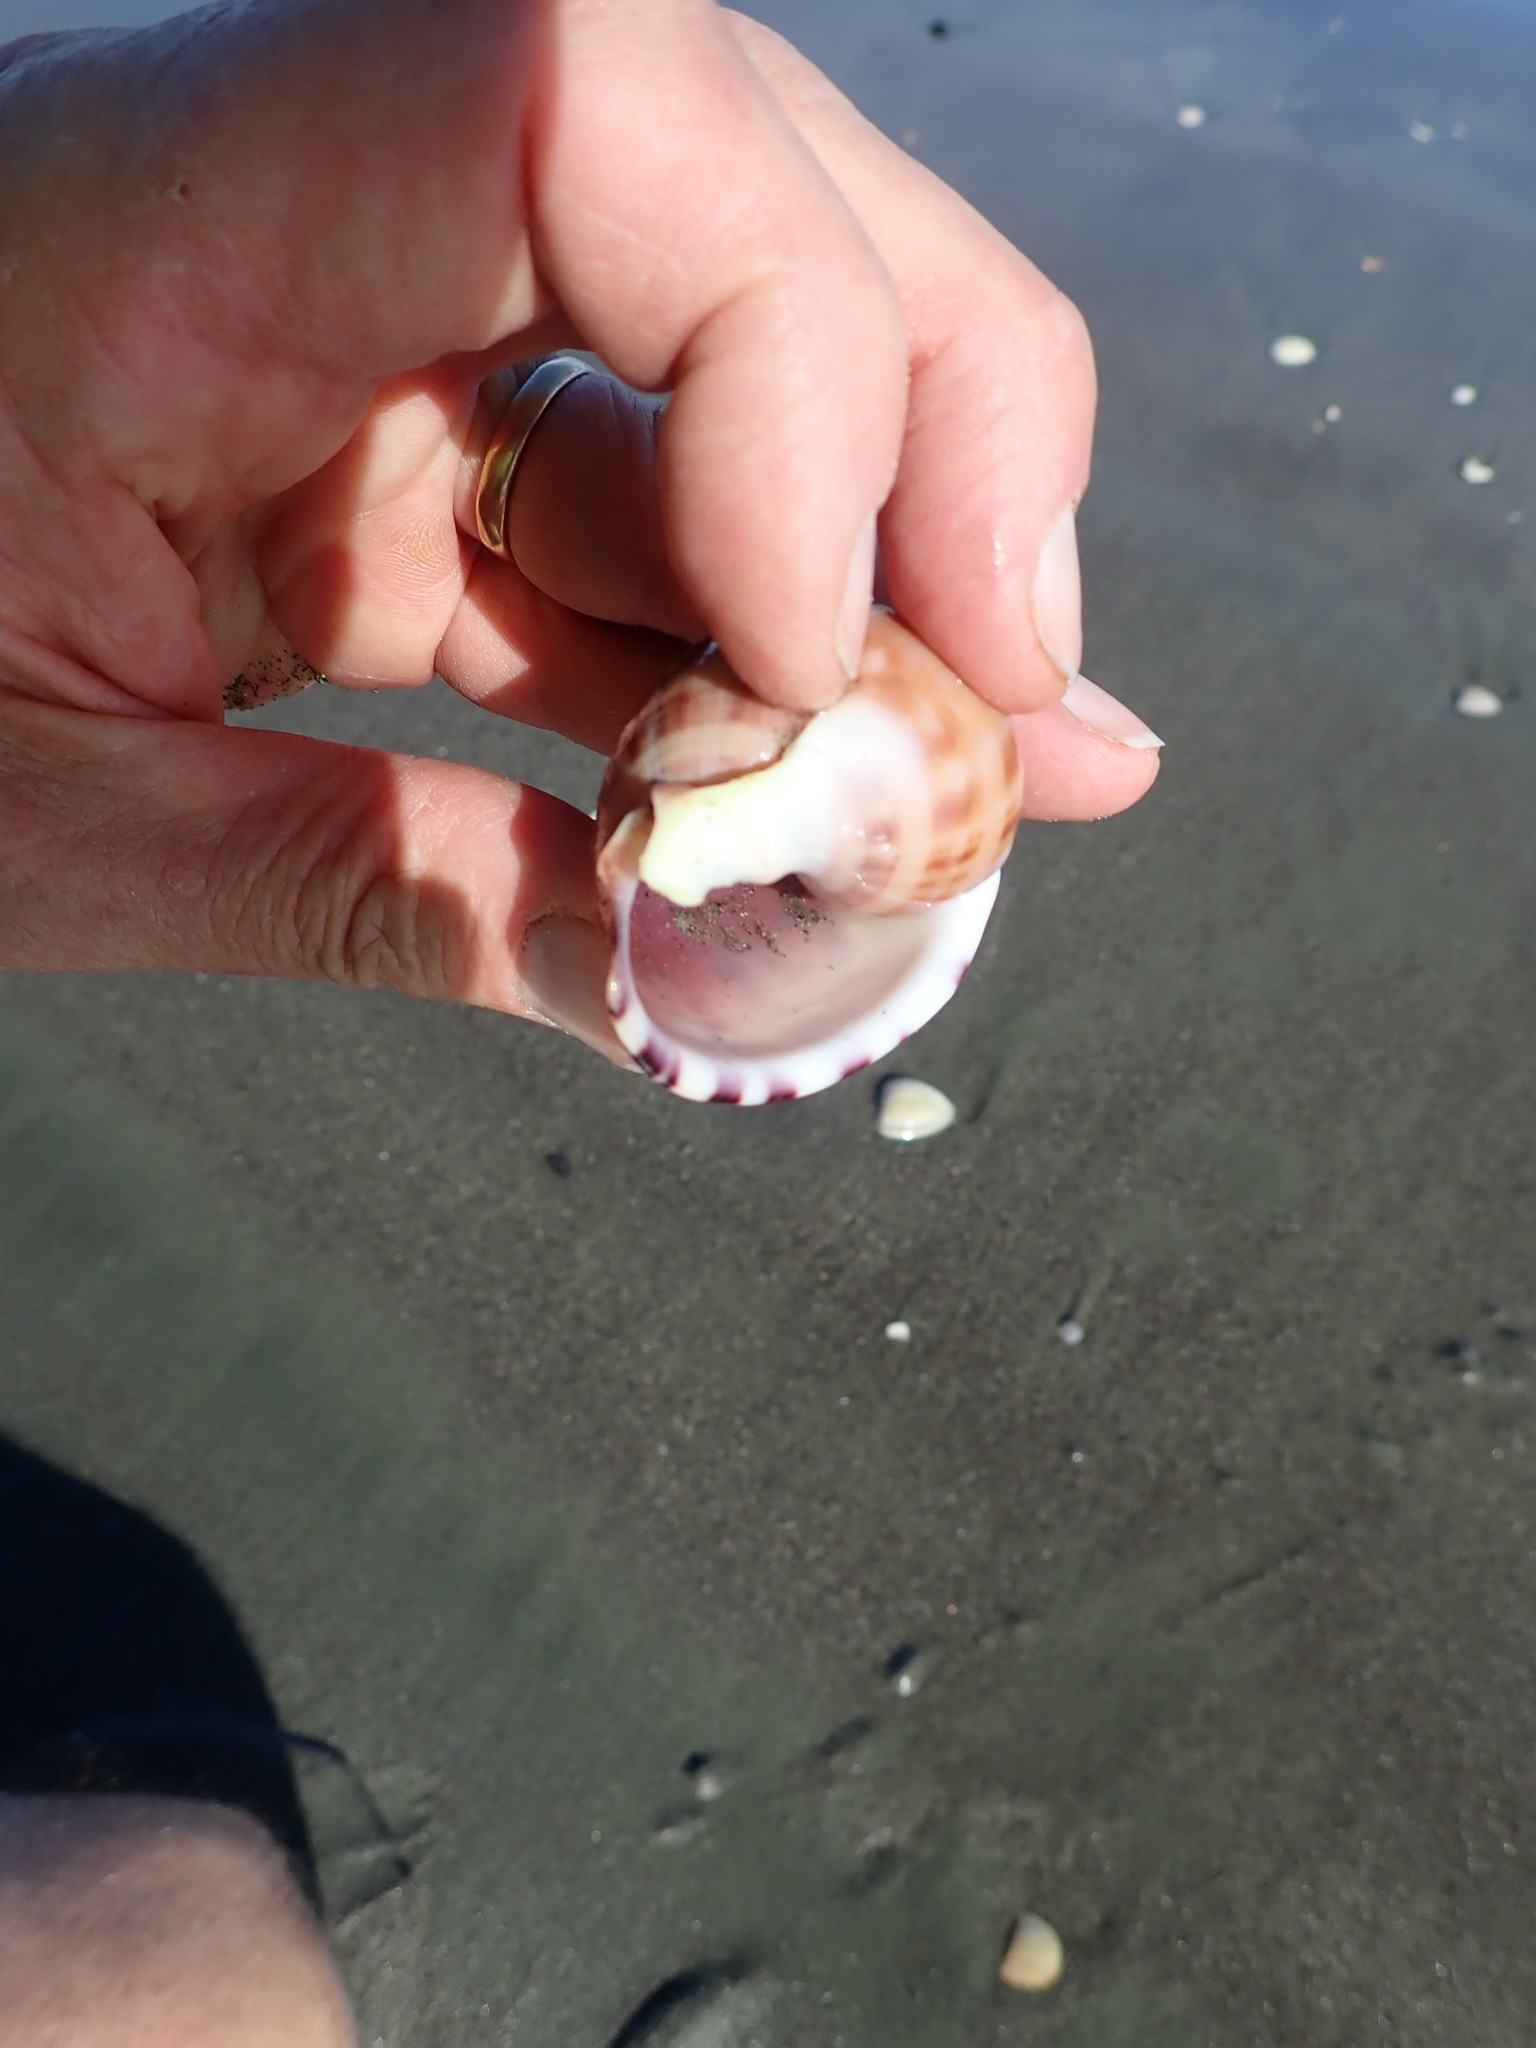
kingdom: Animalia
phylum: Mollusca
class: Gastropoda
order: Littorinimorpha
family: Cassidae
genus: Semicassis
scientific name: Semicassis pyrum
